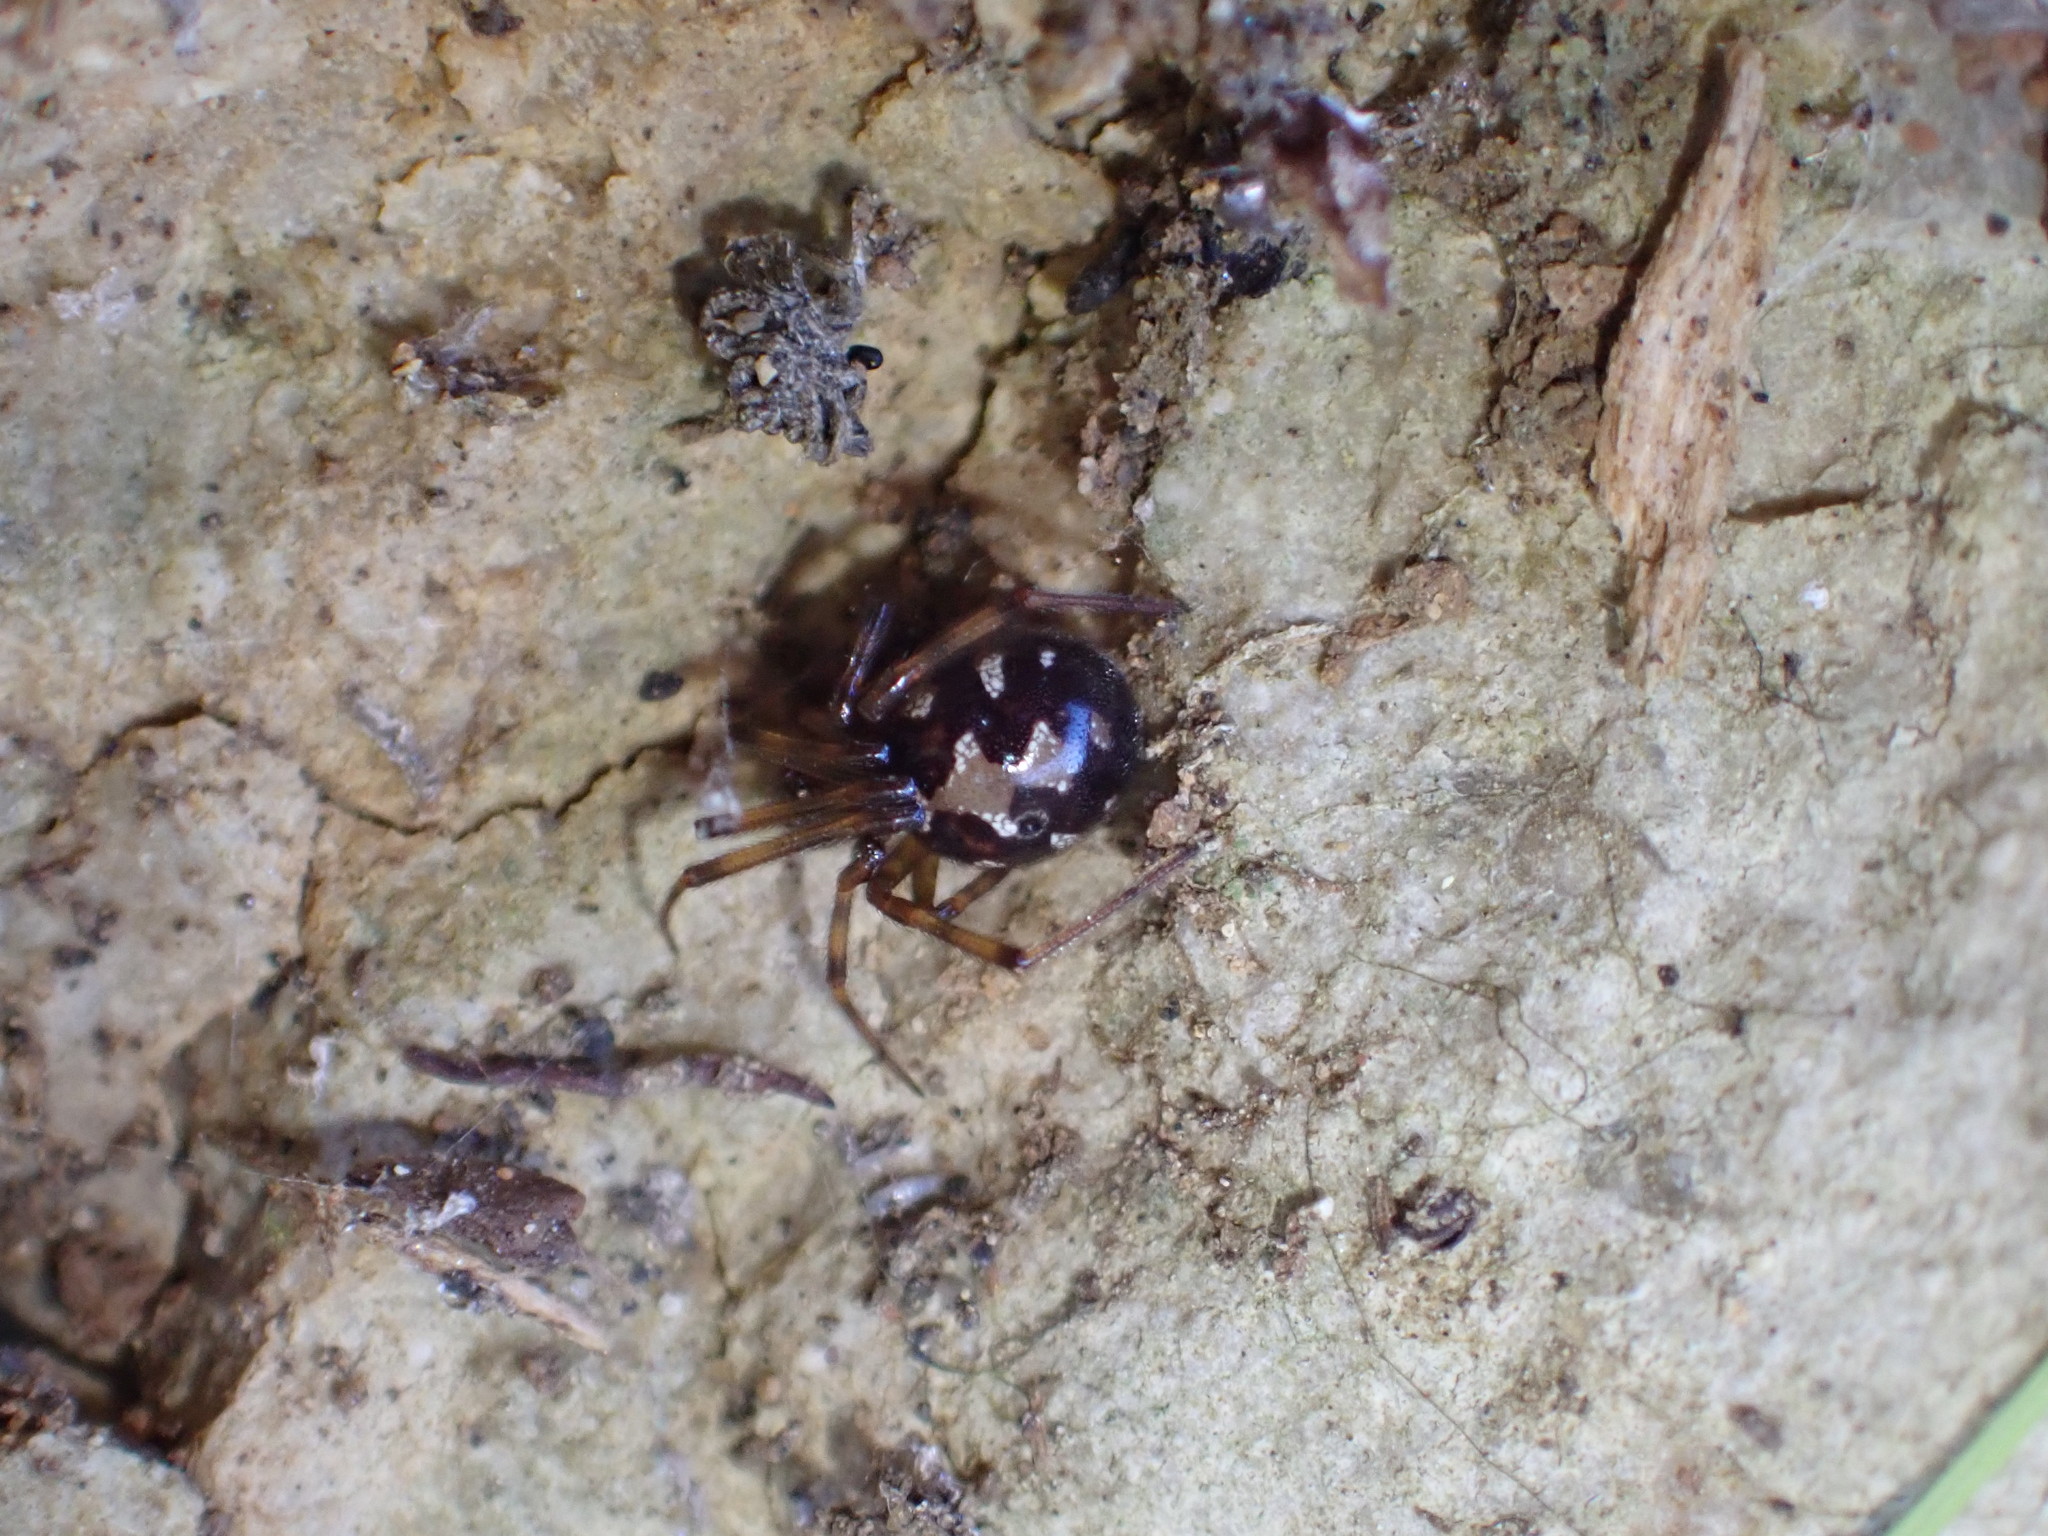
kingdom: Animalia
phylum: Arthropoda
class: Arachnida
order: Araneae
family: Theridiidae
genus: Steatoda
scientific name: Steatoda triangulosa
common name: Triangulate bud spider
